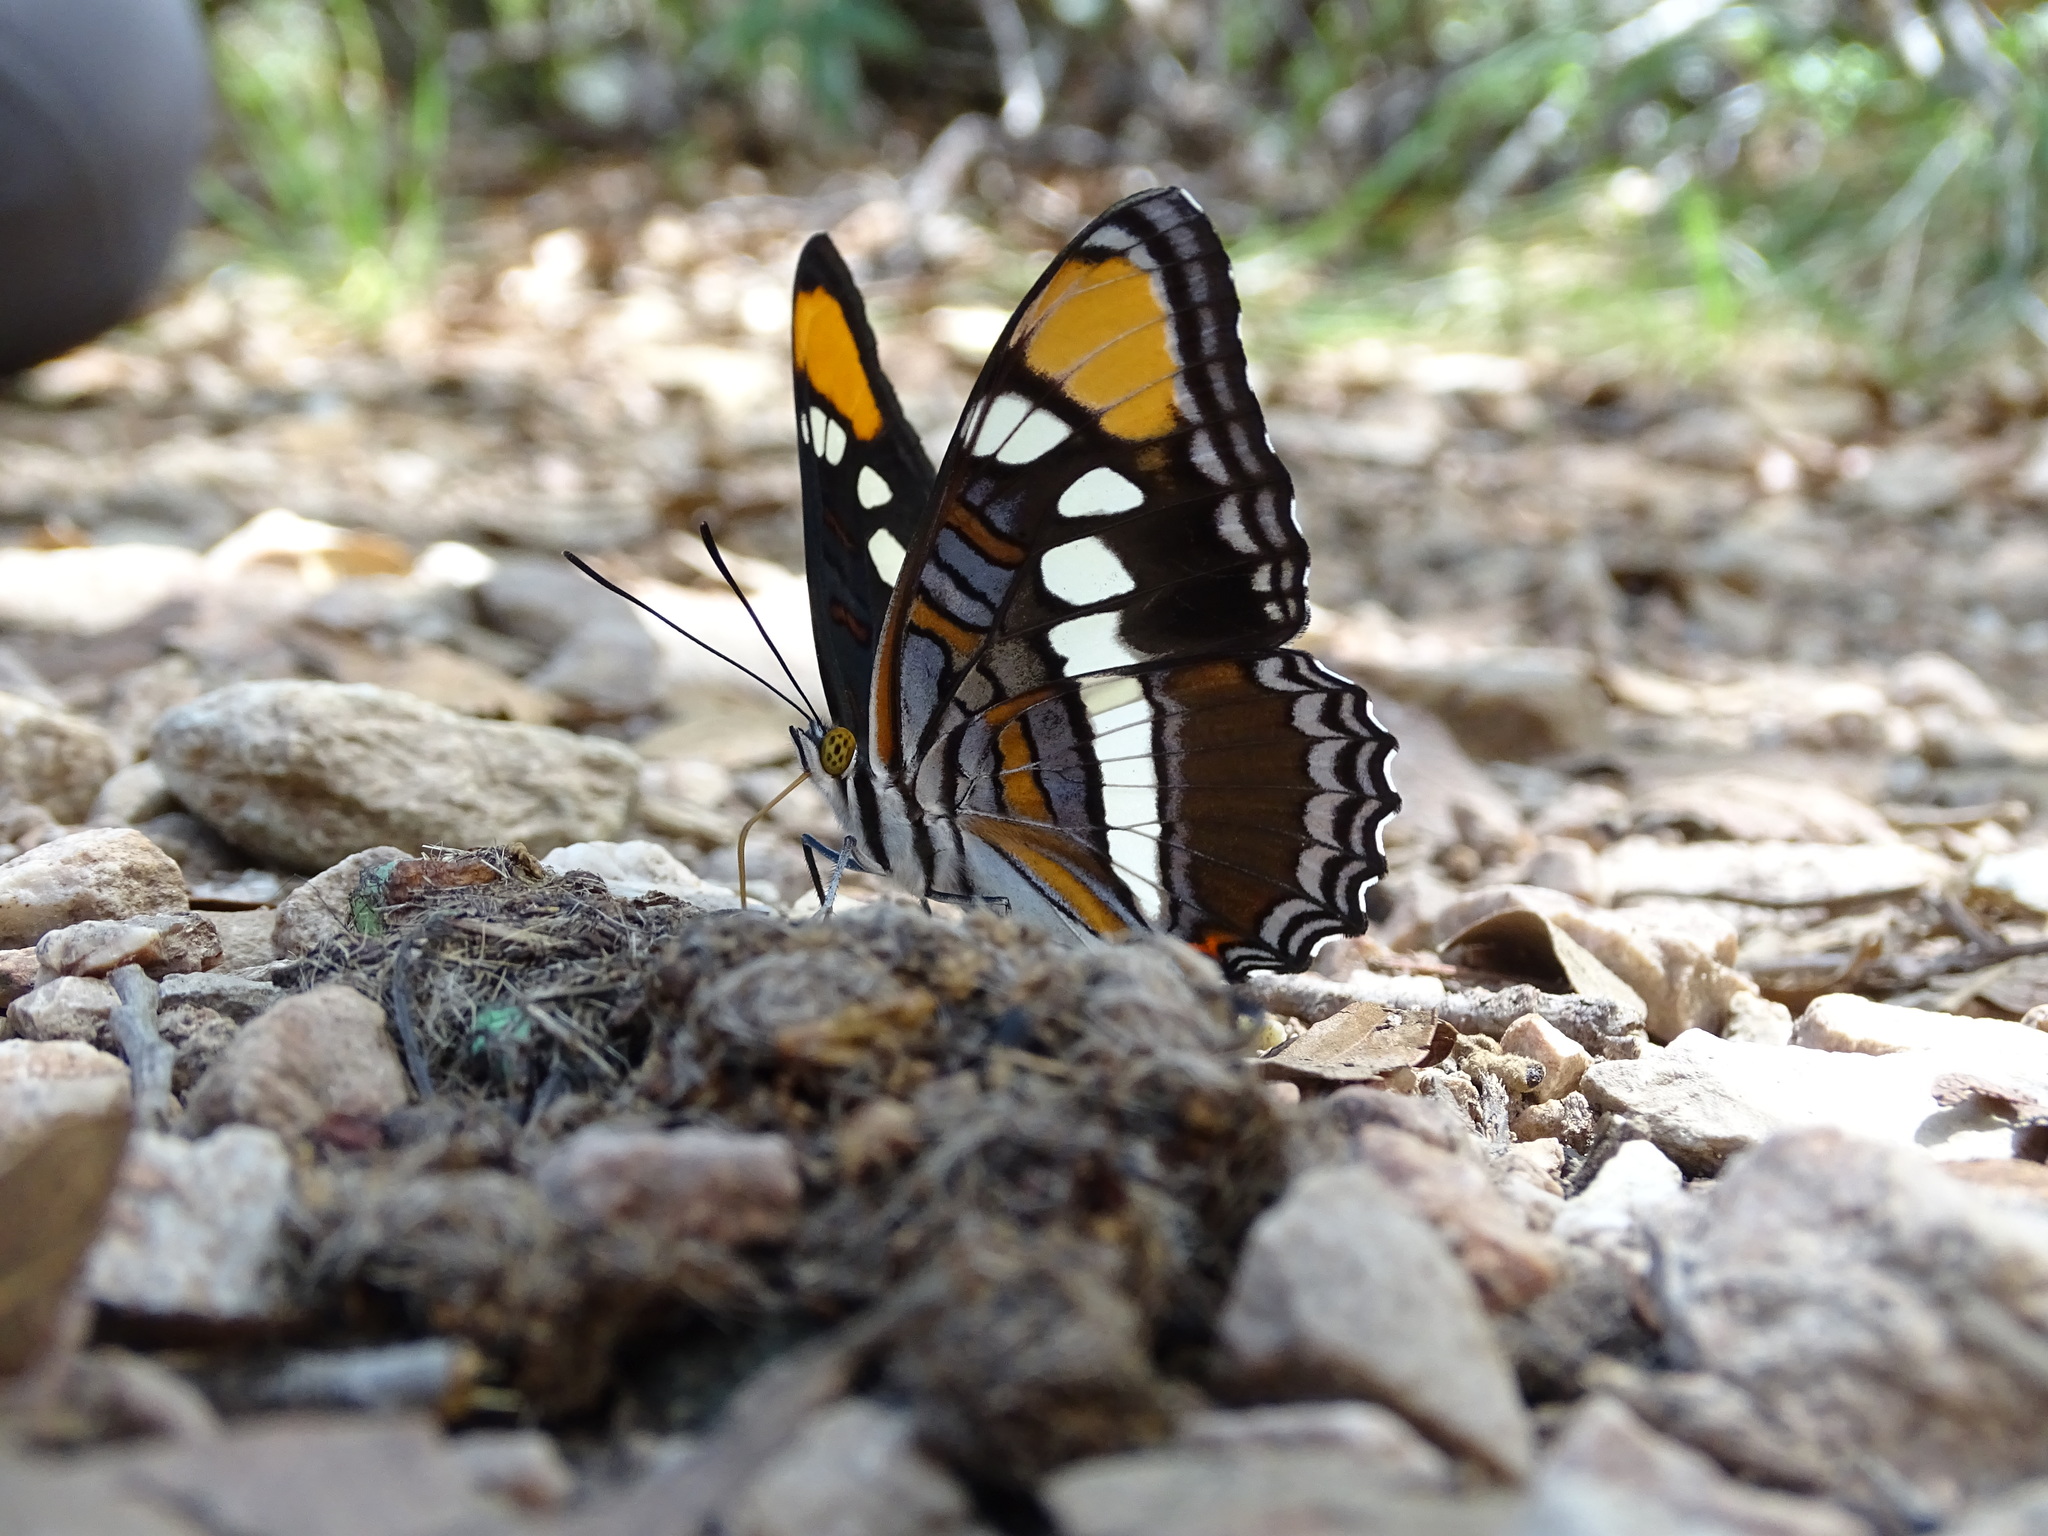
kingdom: Animalia
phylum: Arthropoda
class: Insecta
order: Lepidoptera
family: Nymphalidae
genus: Limenitis
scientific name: Limenitis bredowii
